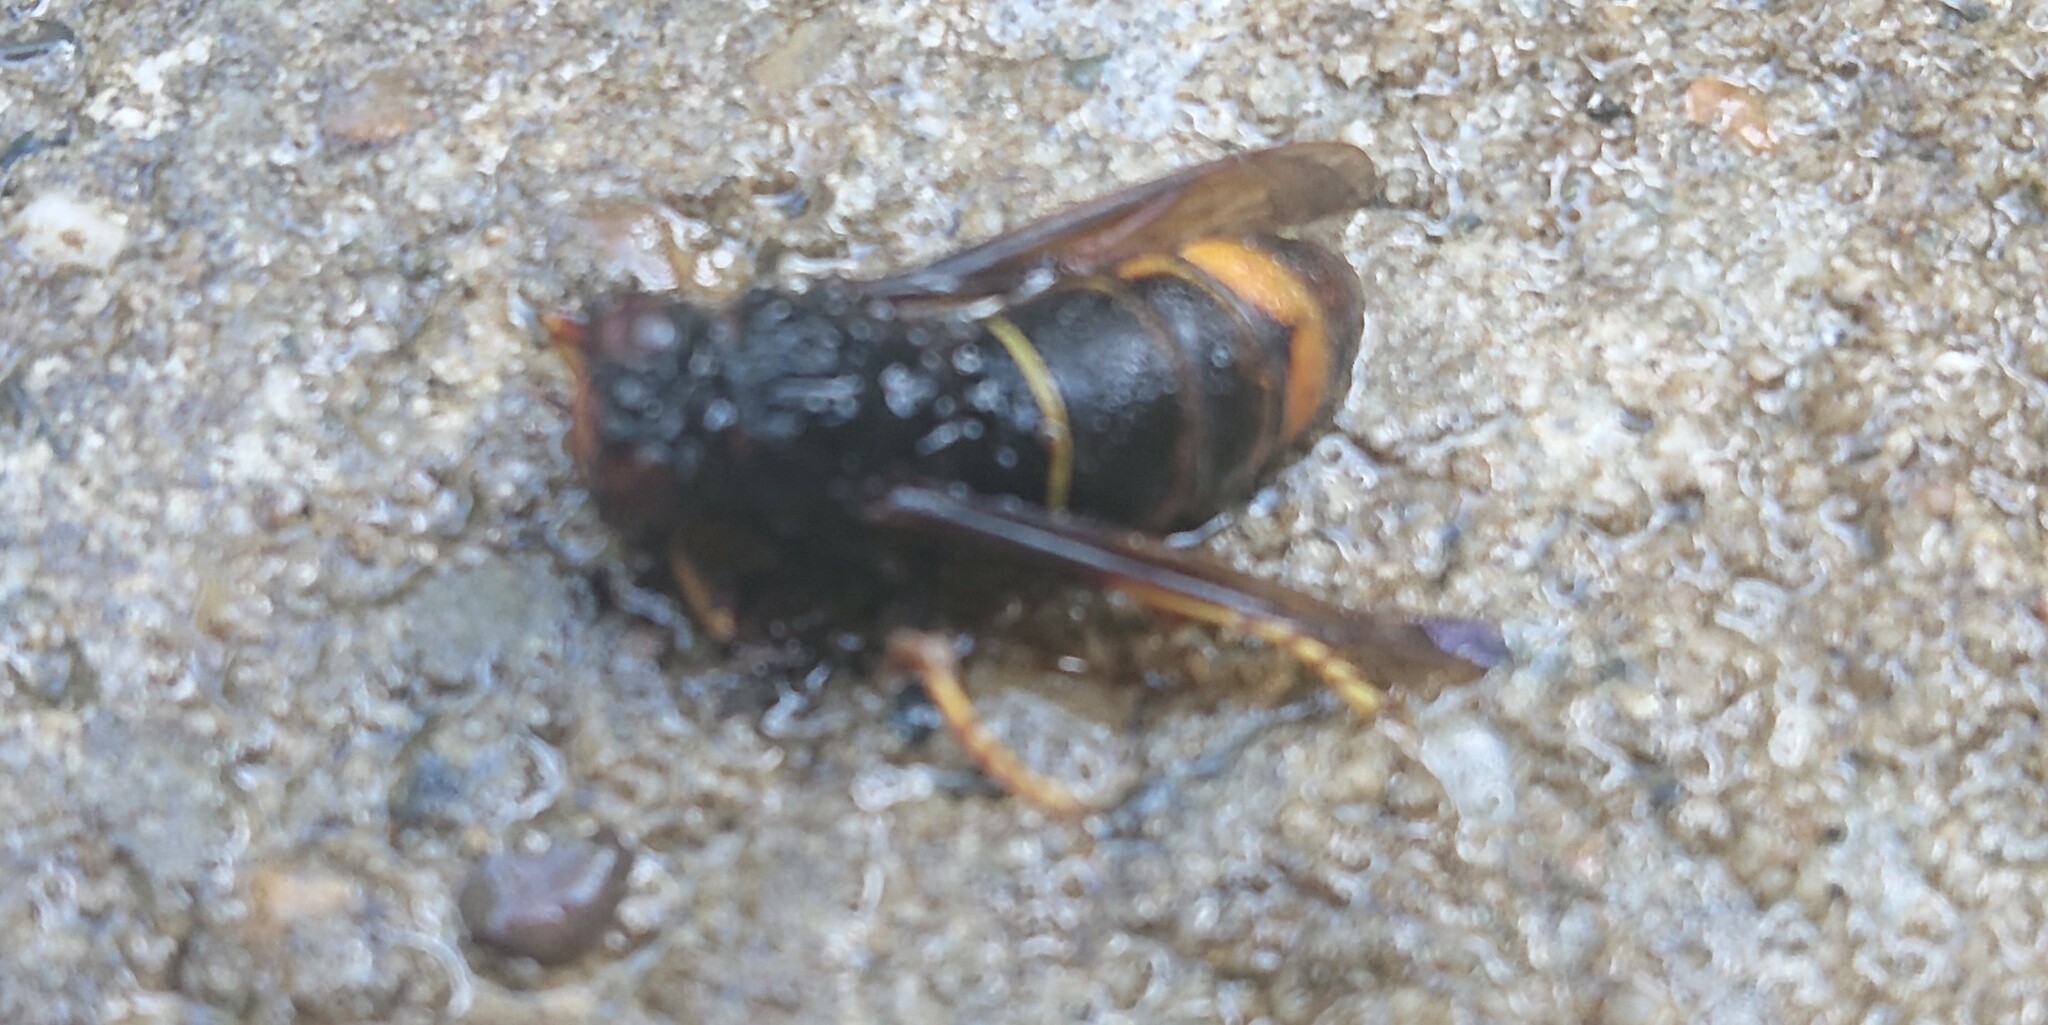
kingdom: Animalia
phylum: Arthropoda
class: Insecta
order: Hymenoptera
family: Vespidae
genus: Vespa
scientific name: Vespa velutina
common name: Asian hornet
